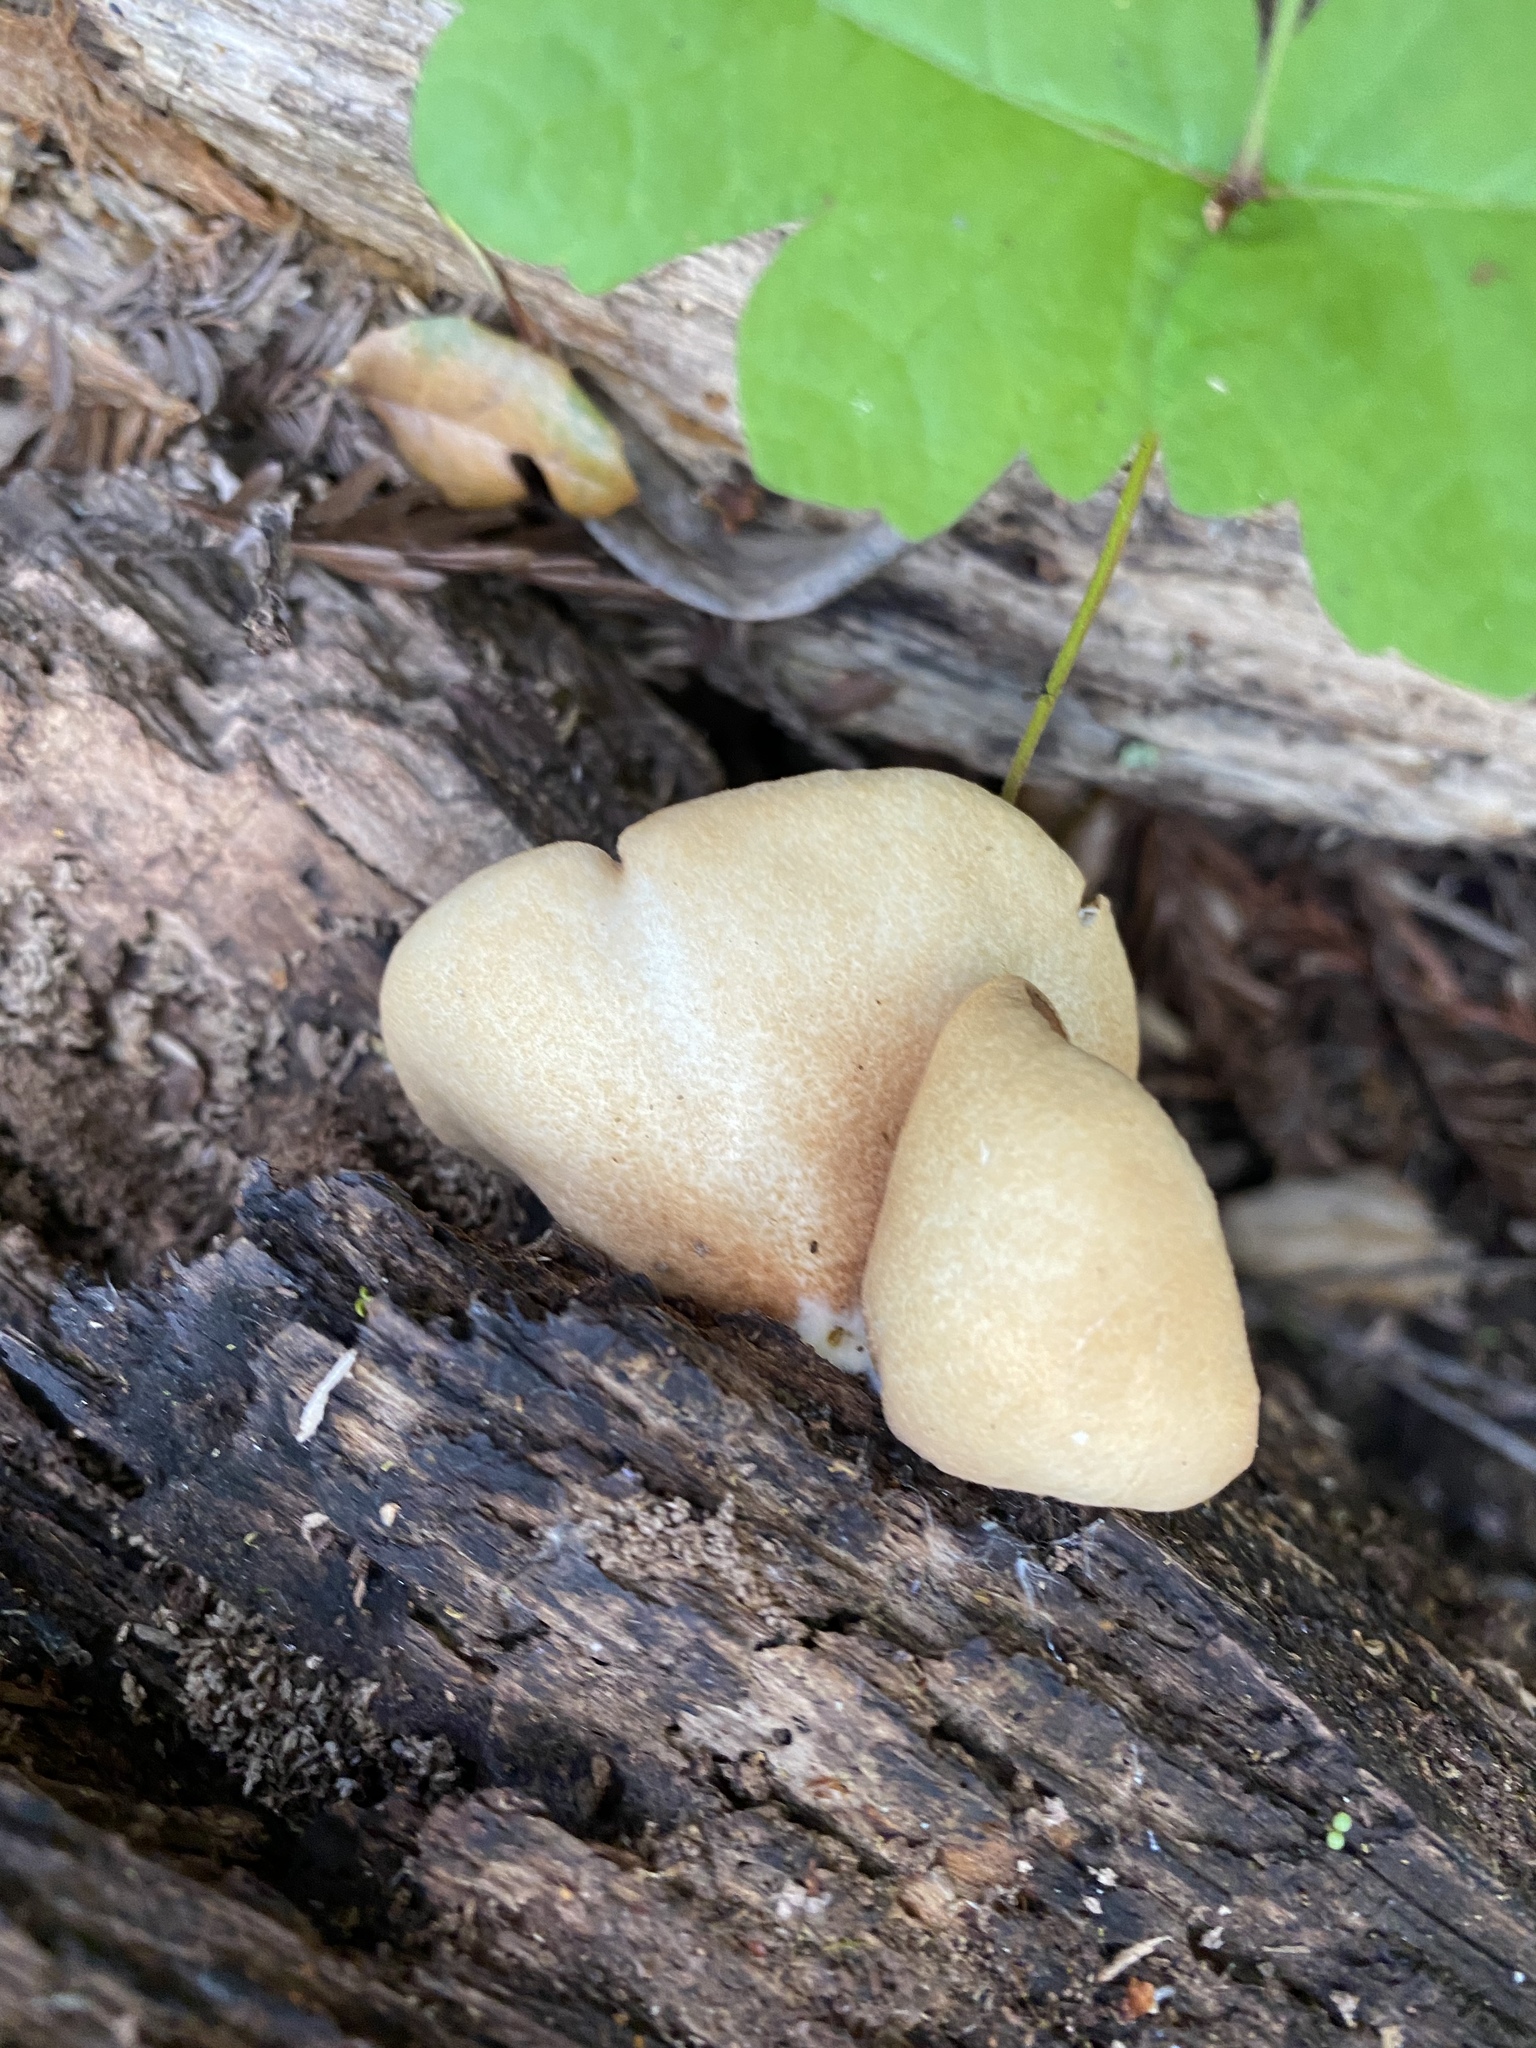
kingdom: Fungi
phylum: Basidiomycota
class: Agaricomycetes
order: Agaricales
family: Crepidotaceae
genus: Crepidotus
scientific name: Crepidotus mollis
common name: Peeling oysterling
